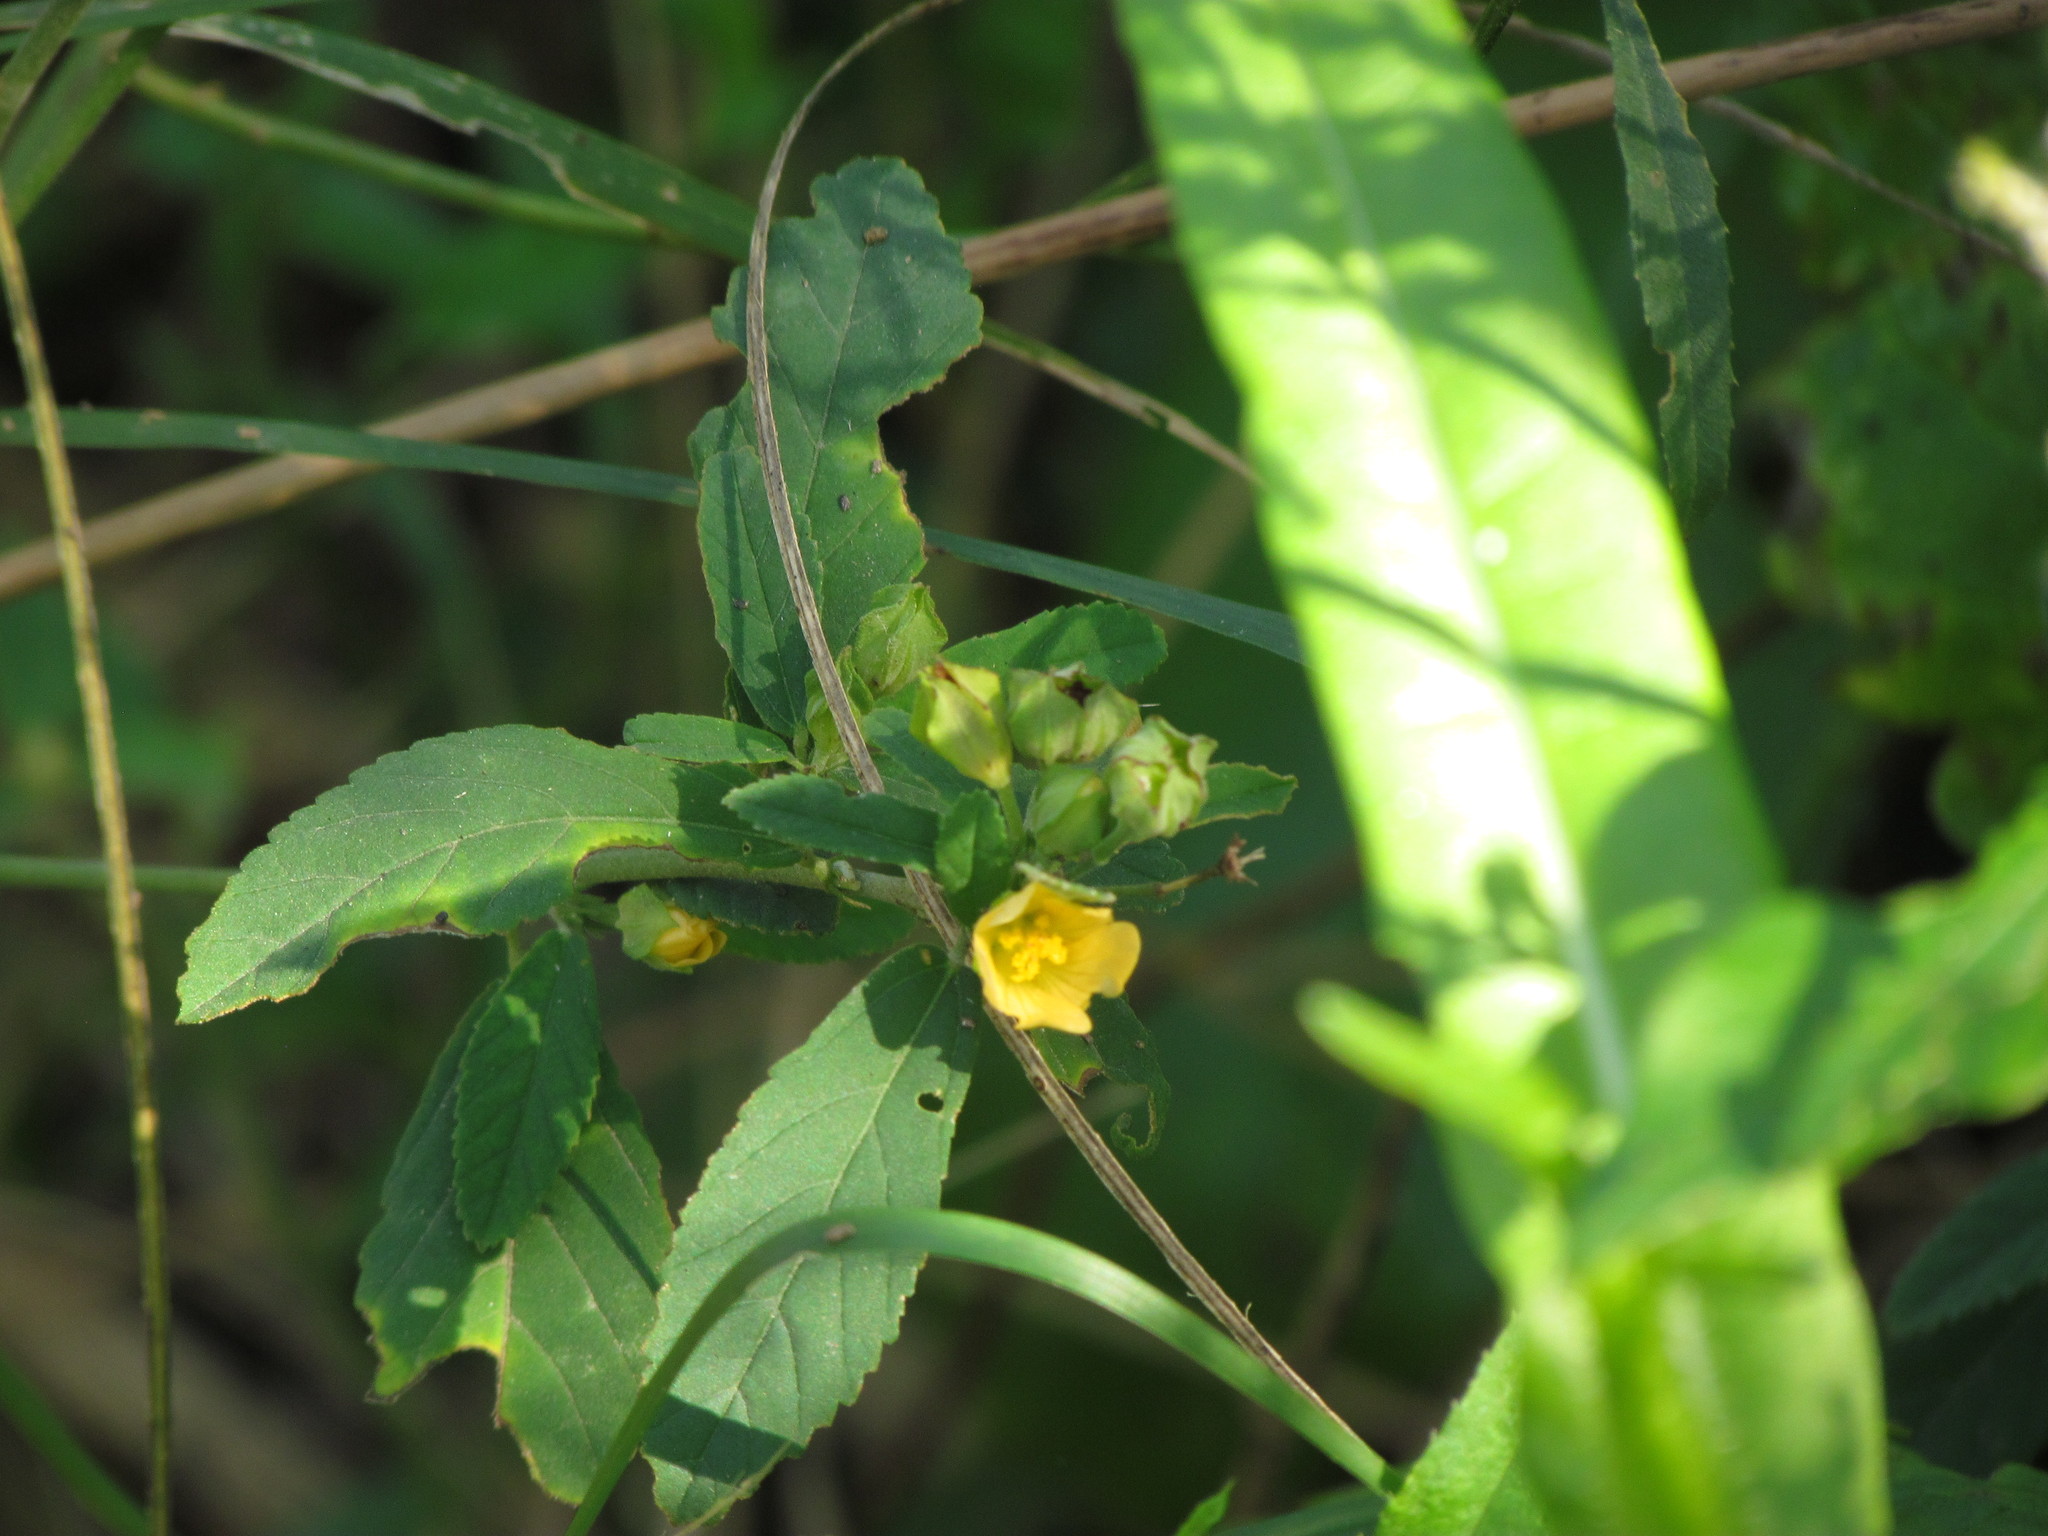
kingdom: Plantae
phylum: Tracheophyta
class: Magnoliopsida
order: Malvales
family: Malvaceae
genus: Sida
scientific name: Sida rhombifolia
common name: Queensland-hemp
